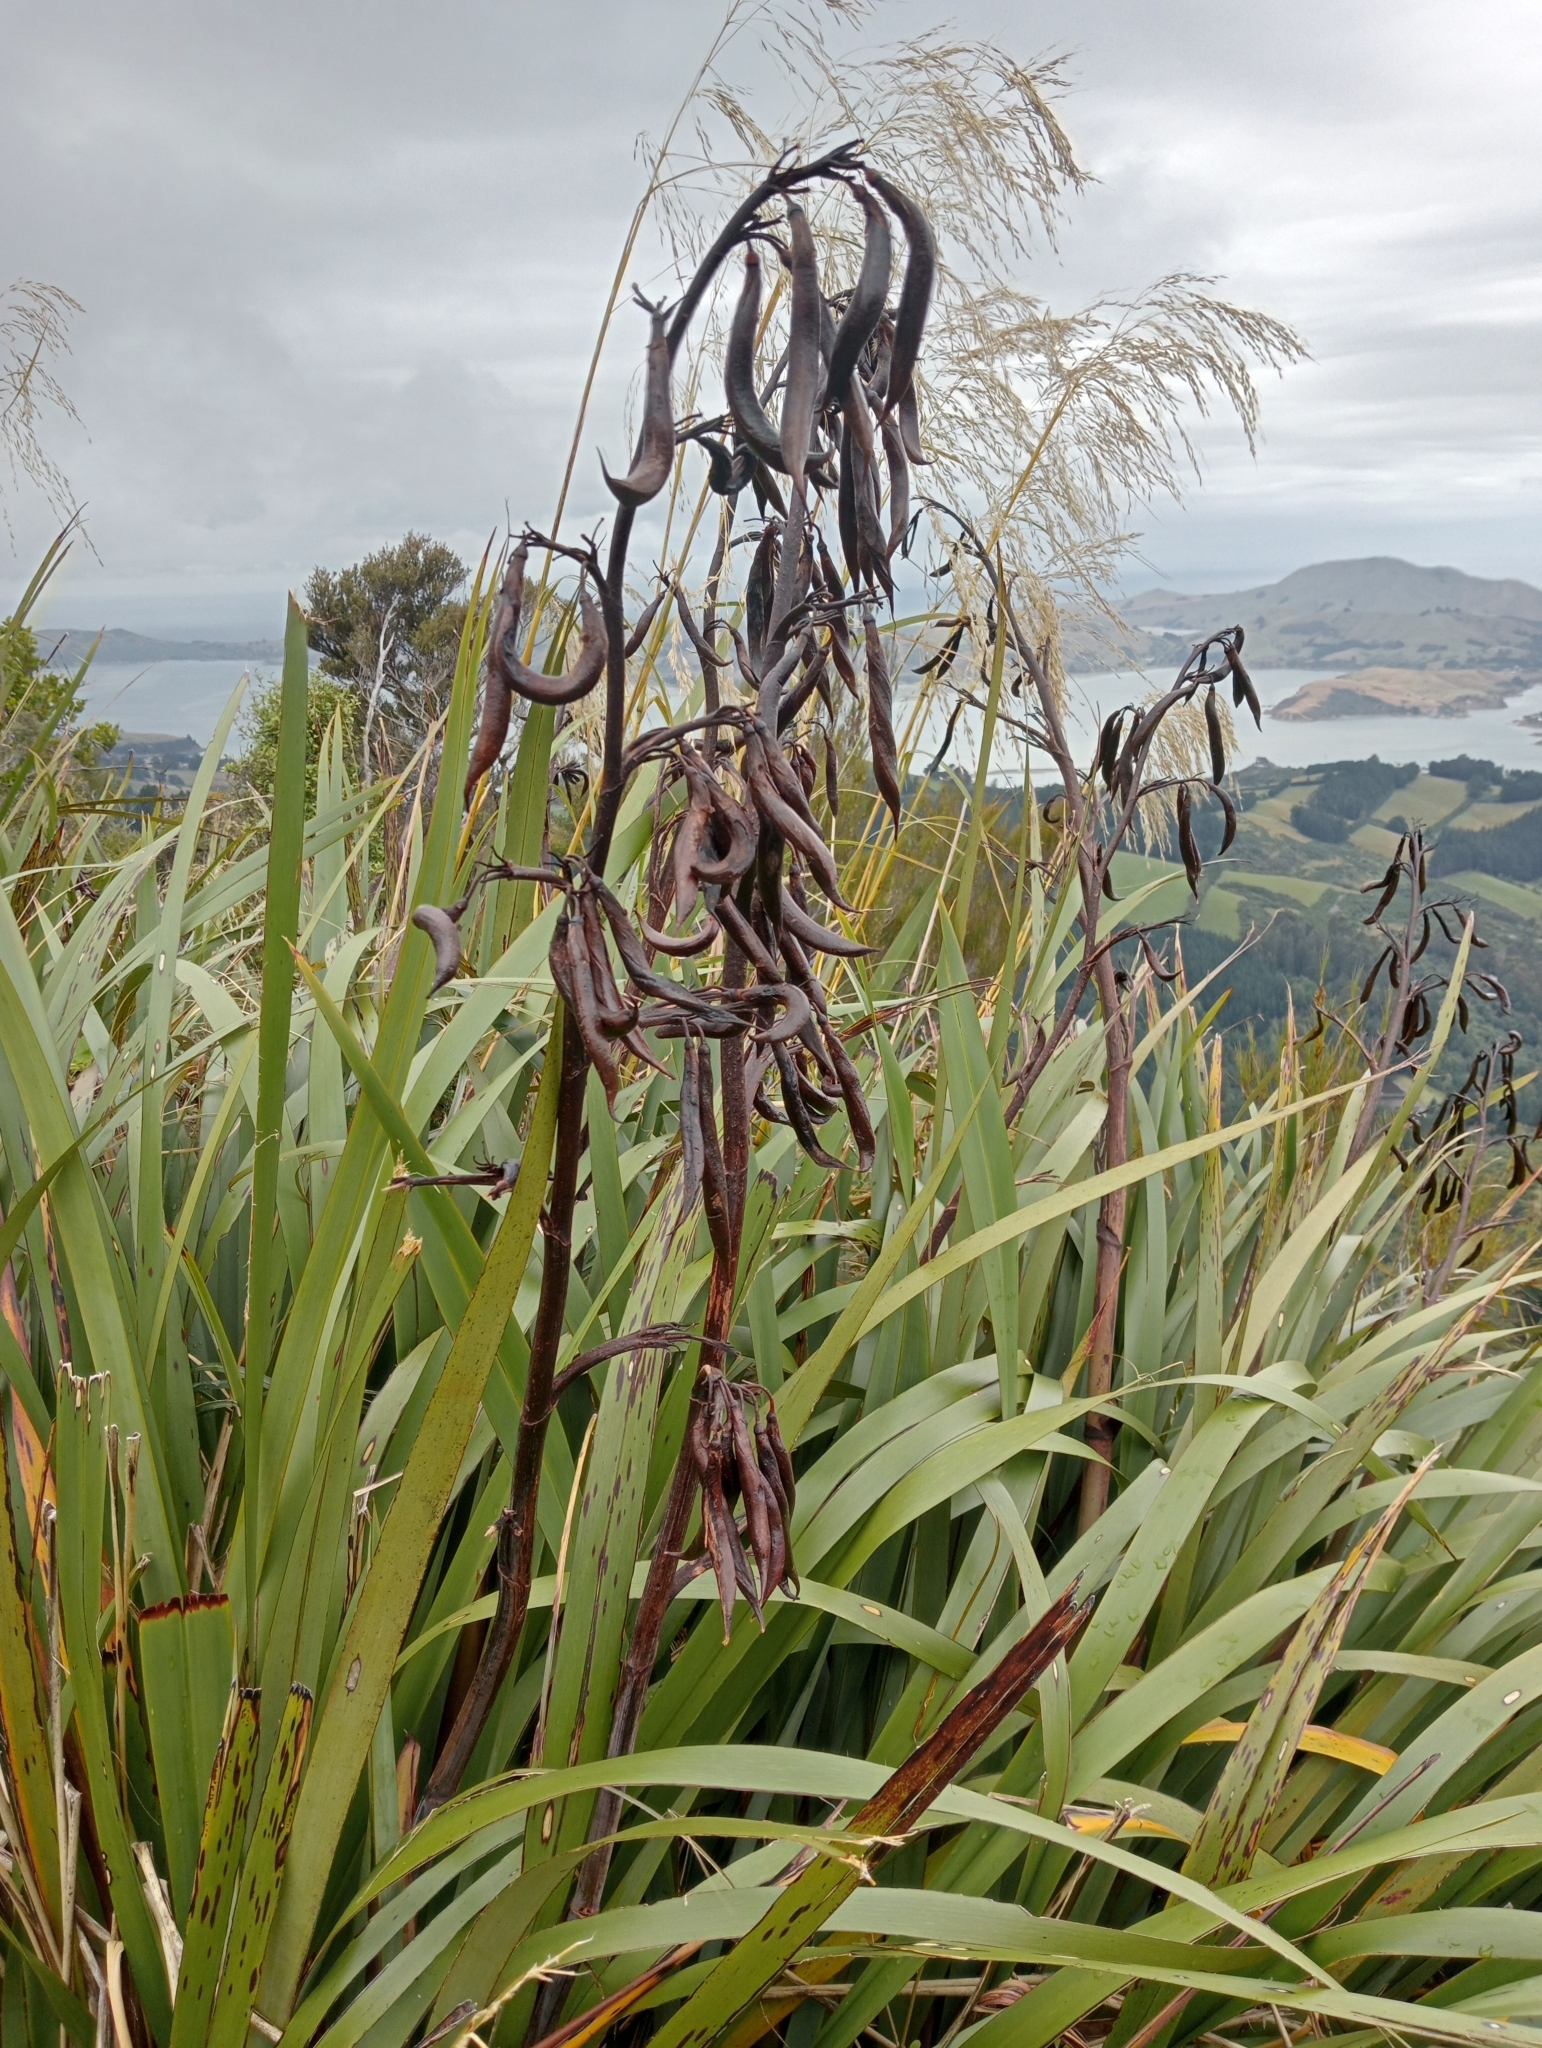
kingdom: Plantae
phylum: Tracheophyta
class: Liliopsida
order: Asparagales
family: Asphodelaceae
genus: Phormium
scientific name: Phormium colensoi
